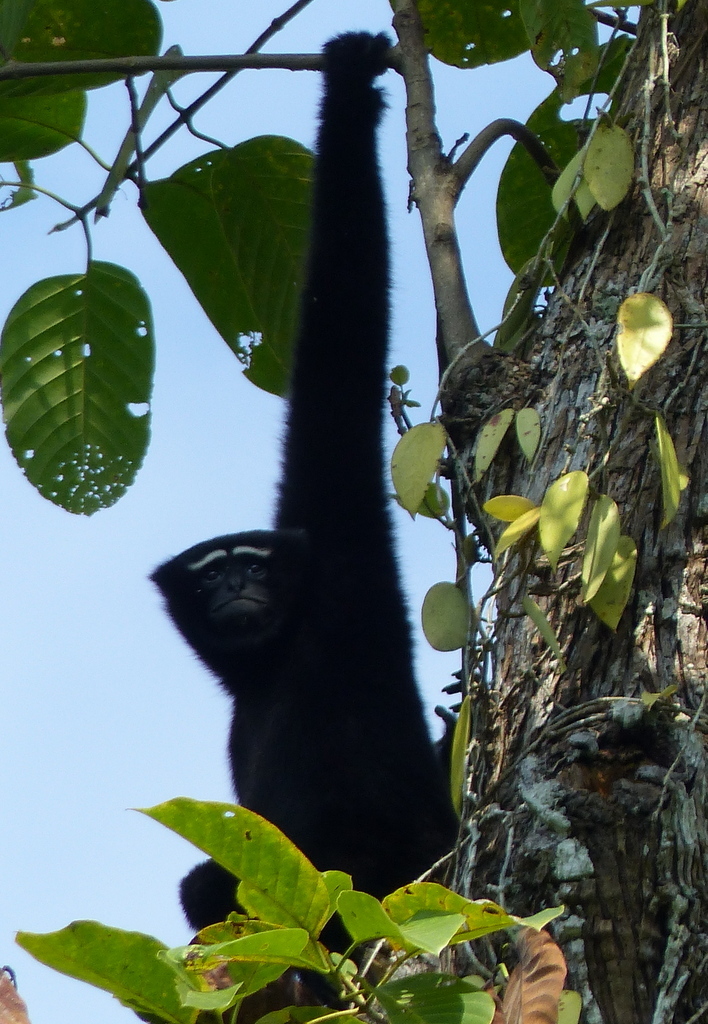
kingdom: Animalia
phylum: Chordata
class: Mammalia
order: Primates
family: Hylobatidae
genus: Hoolock
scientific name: Hoolock hoolock
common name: Western hoolock gibbon
